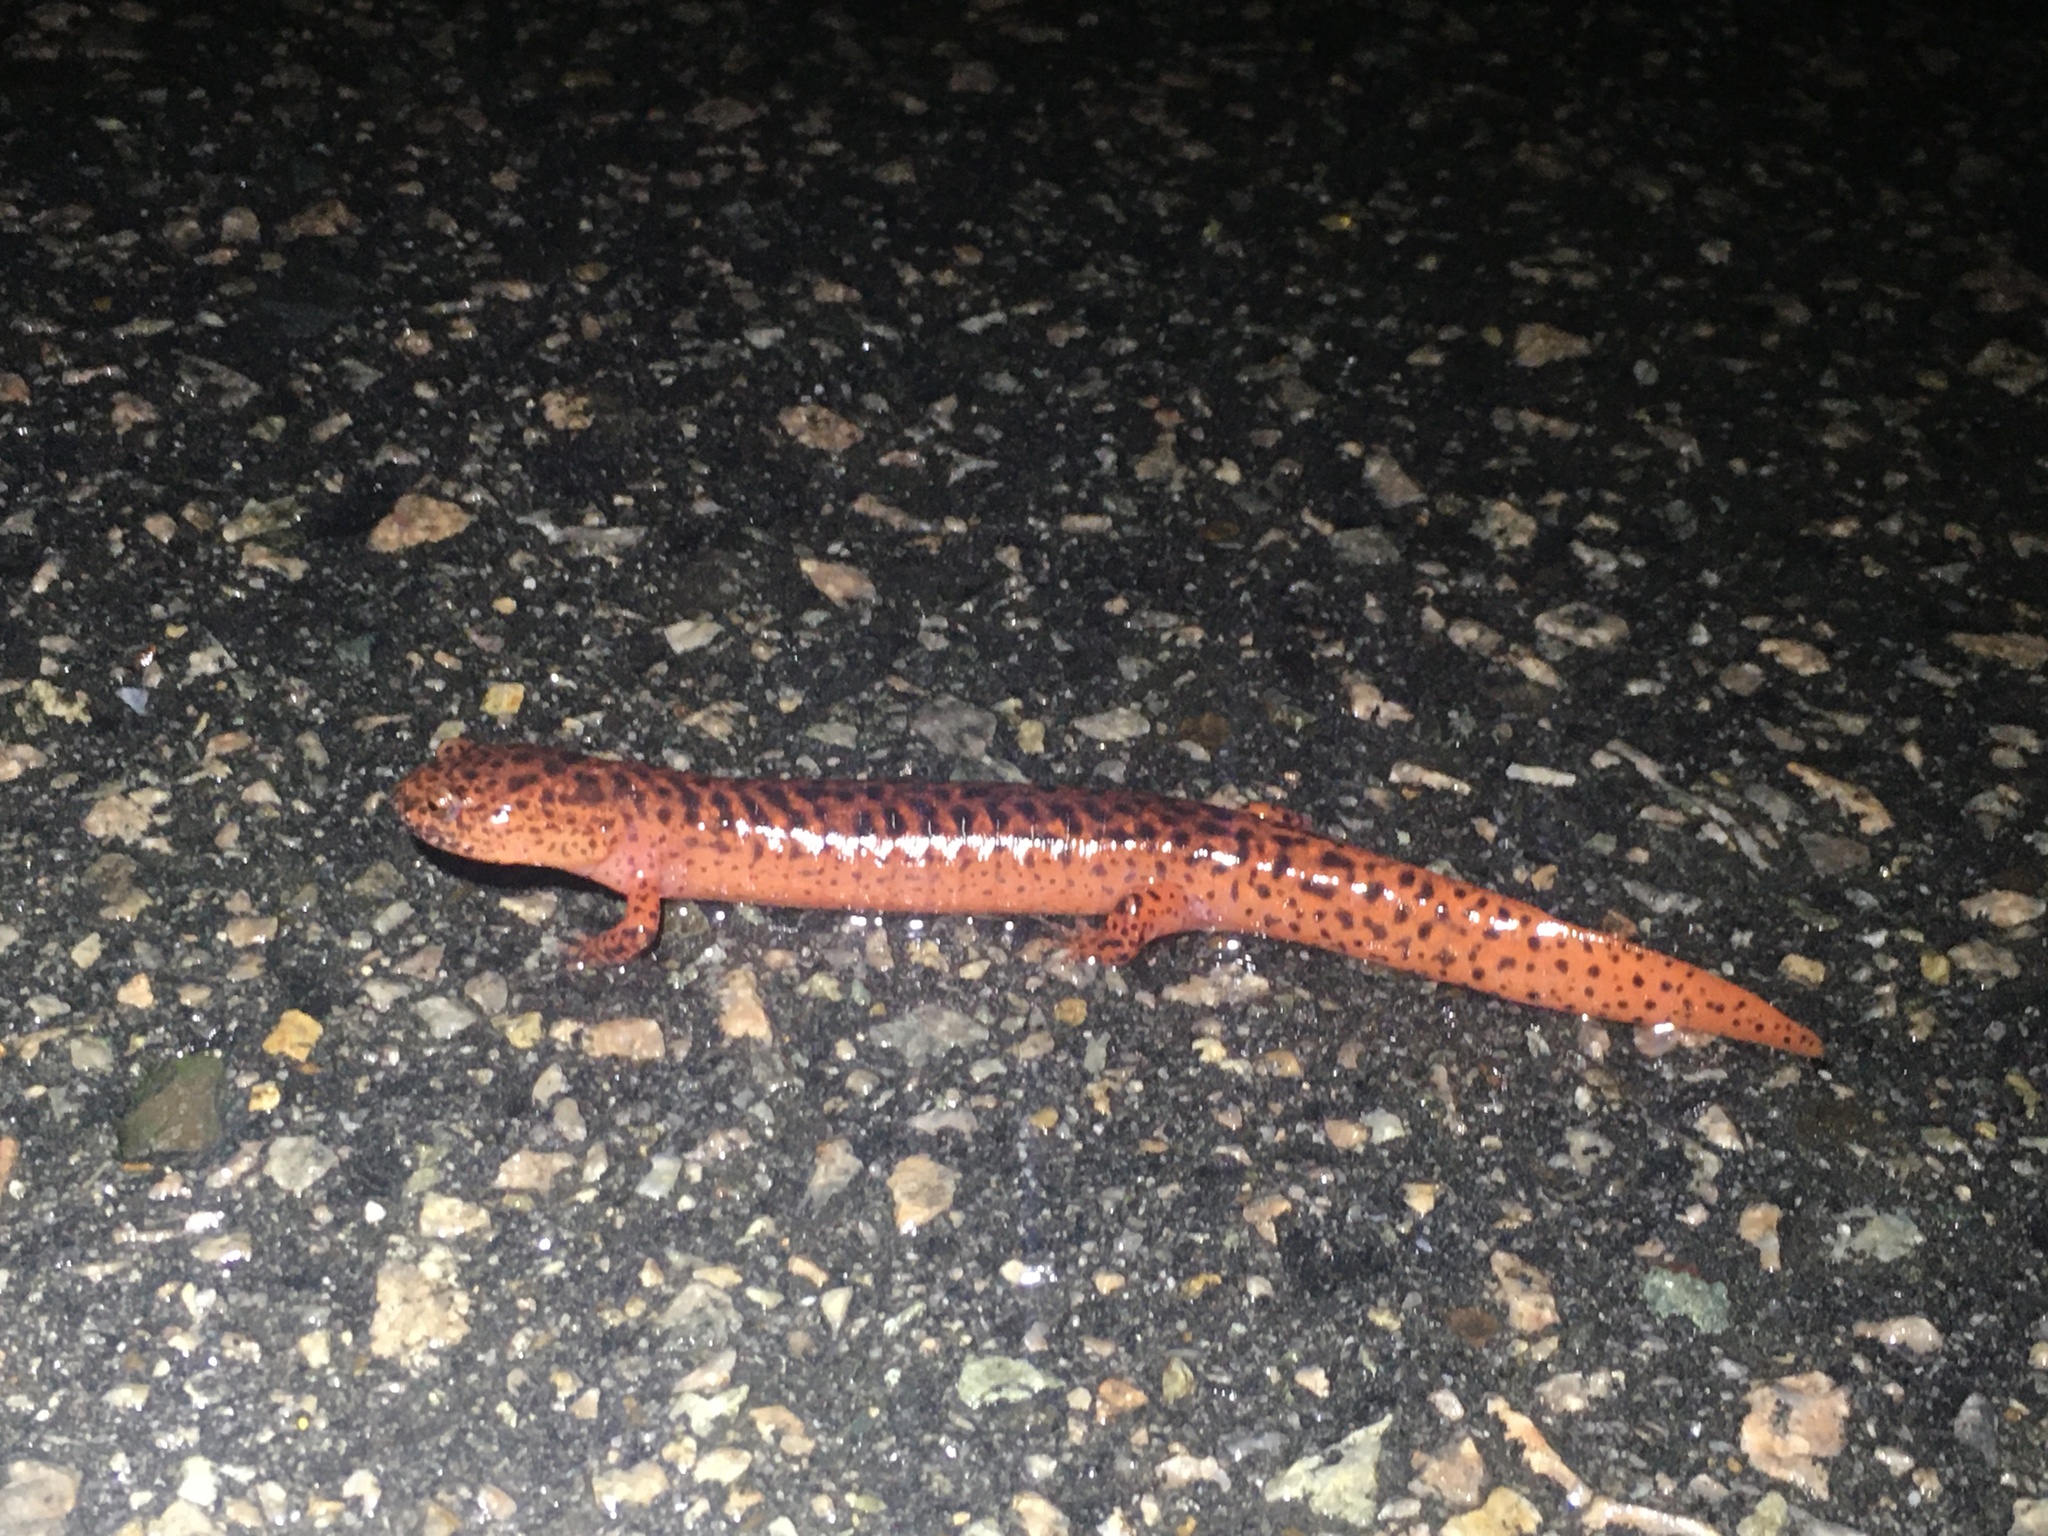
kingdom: Animalia
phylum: Chordata
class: Amphibia
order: Caudata
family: Plethodontidae
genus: Pseudotriton
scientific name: Pseudotriton ruber
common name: Red salamander
